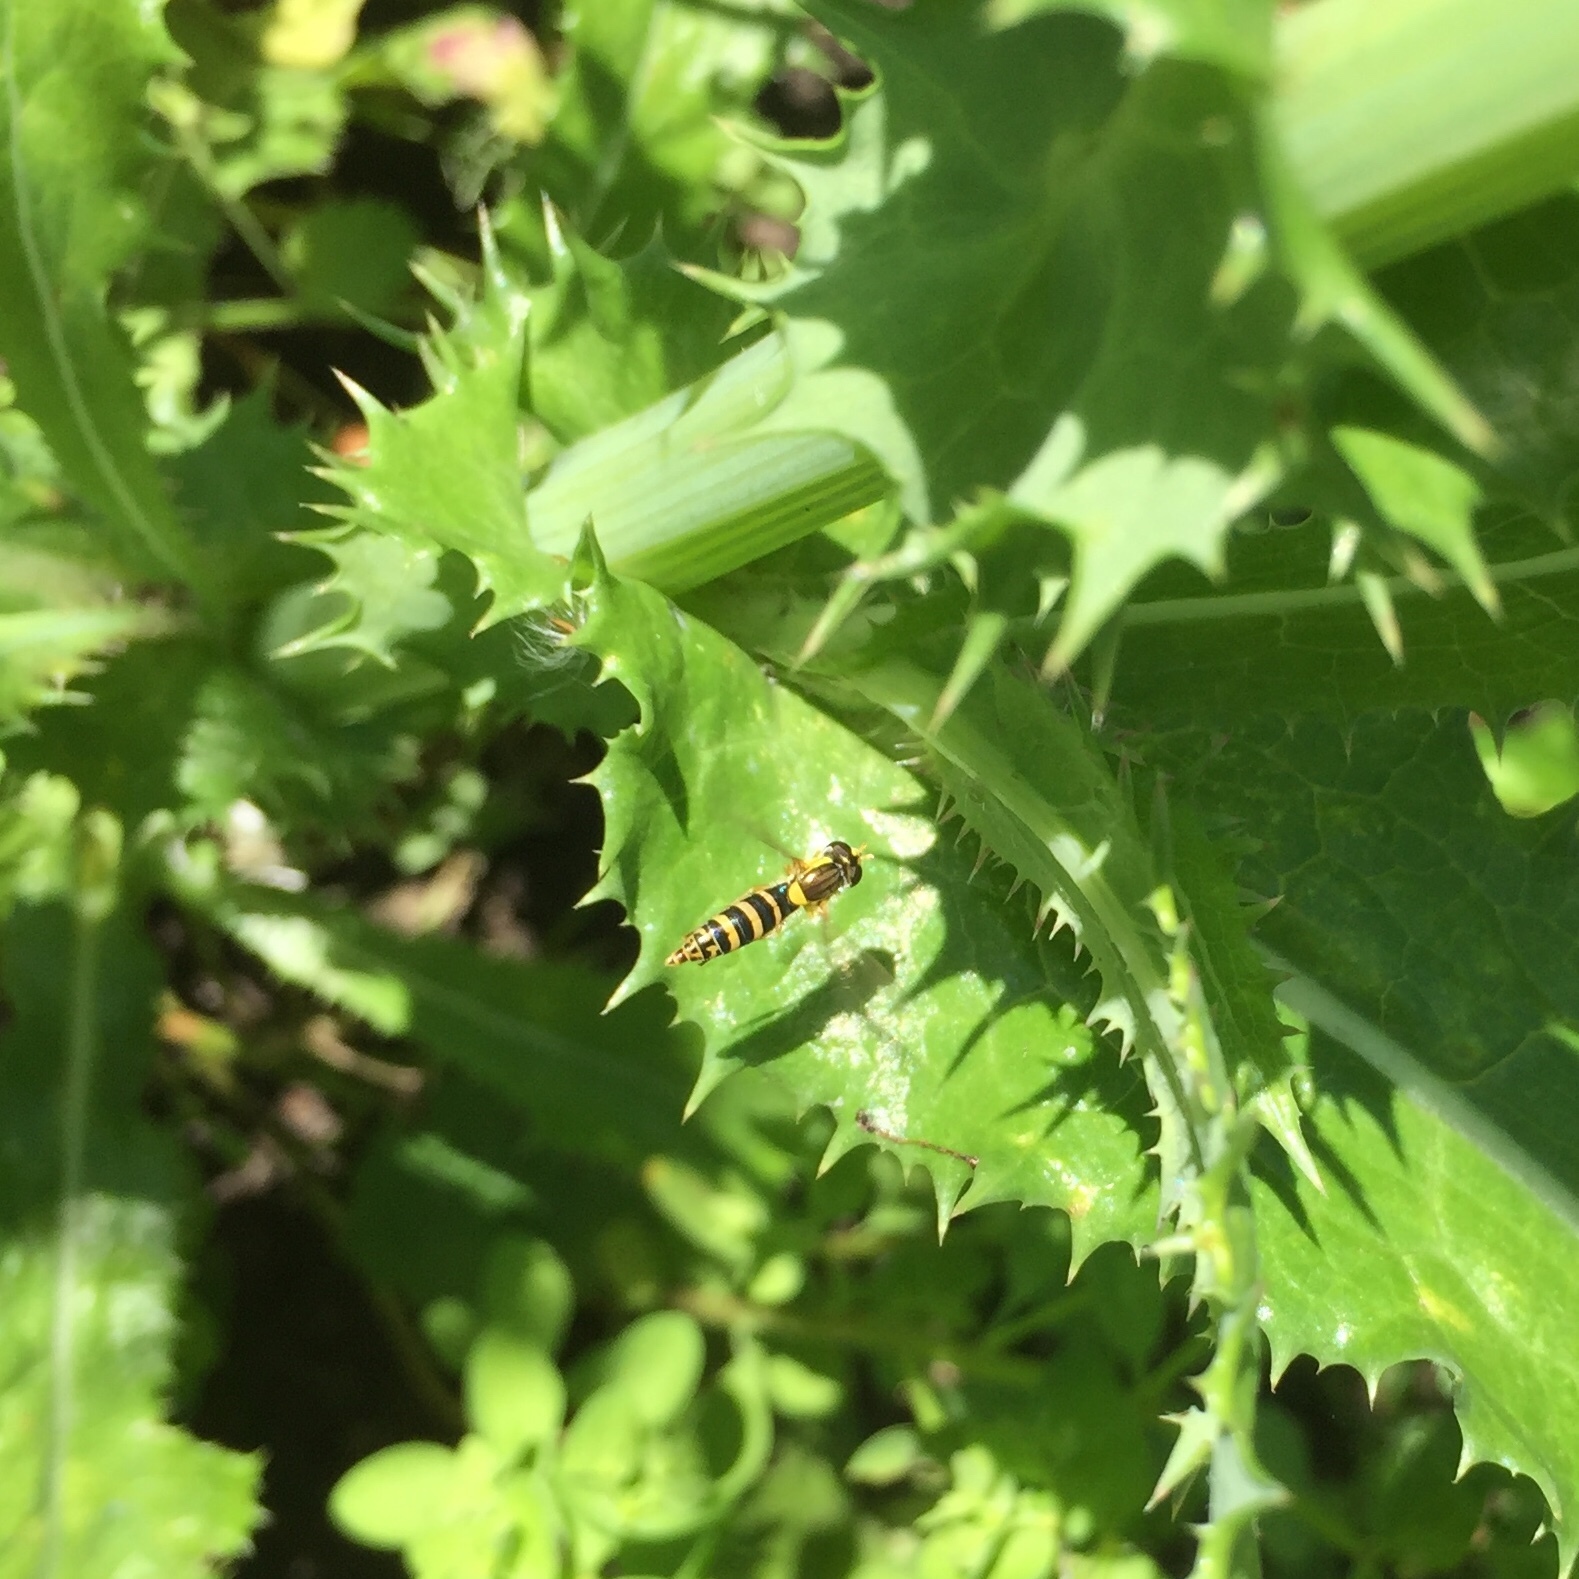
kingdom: Animalia
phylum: Arthropoda
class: Insecta
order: Diptera
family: Syrphidae
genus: Sphaerophoria
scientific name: Sphaerophoria
